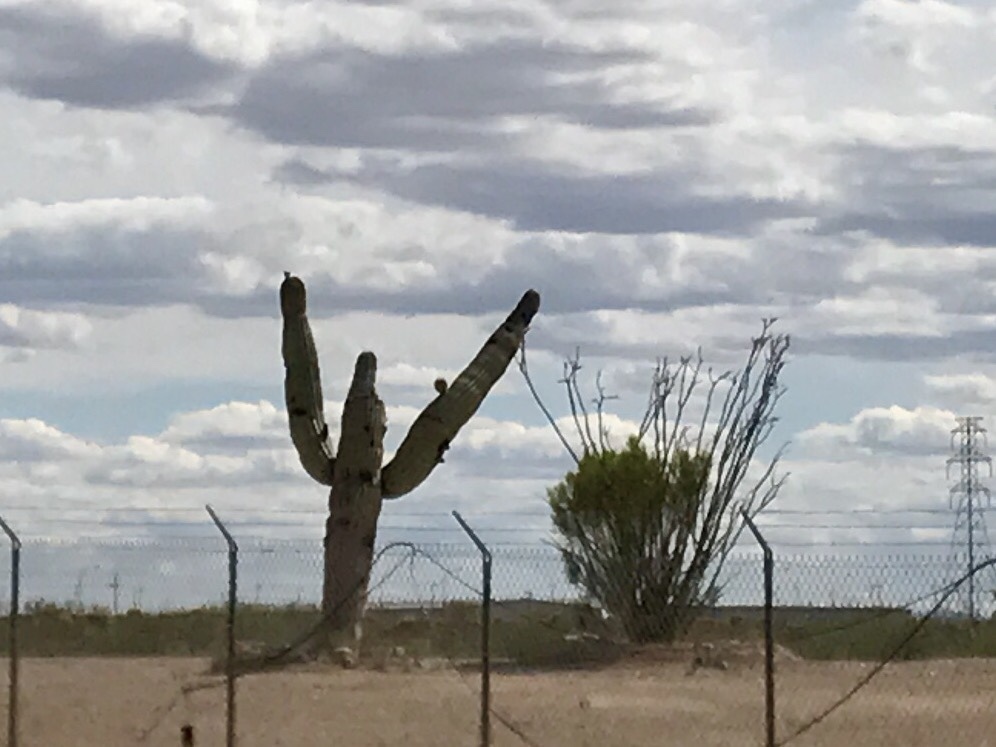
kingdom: Plantae
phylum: Tracheophyta
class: Magnoliopsida
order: Caryophyllales
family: Cactaceae
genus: Carnegiea
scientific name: Carnegiea gigantea
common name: Saguaro
